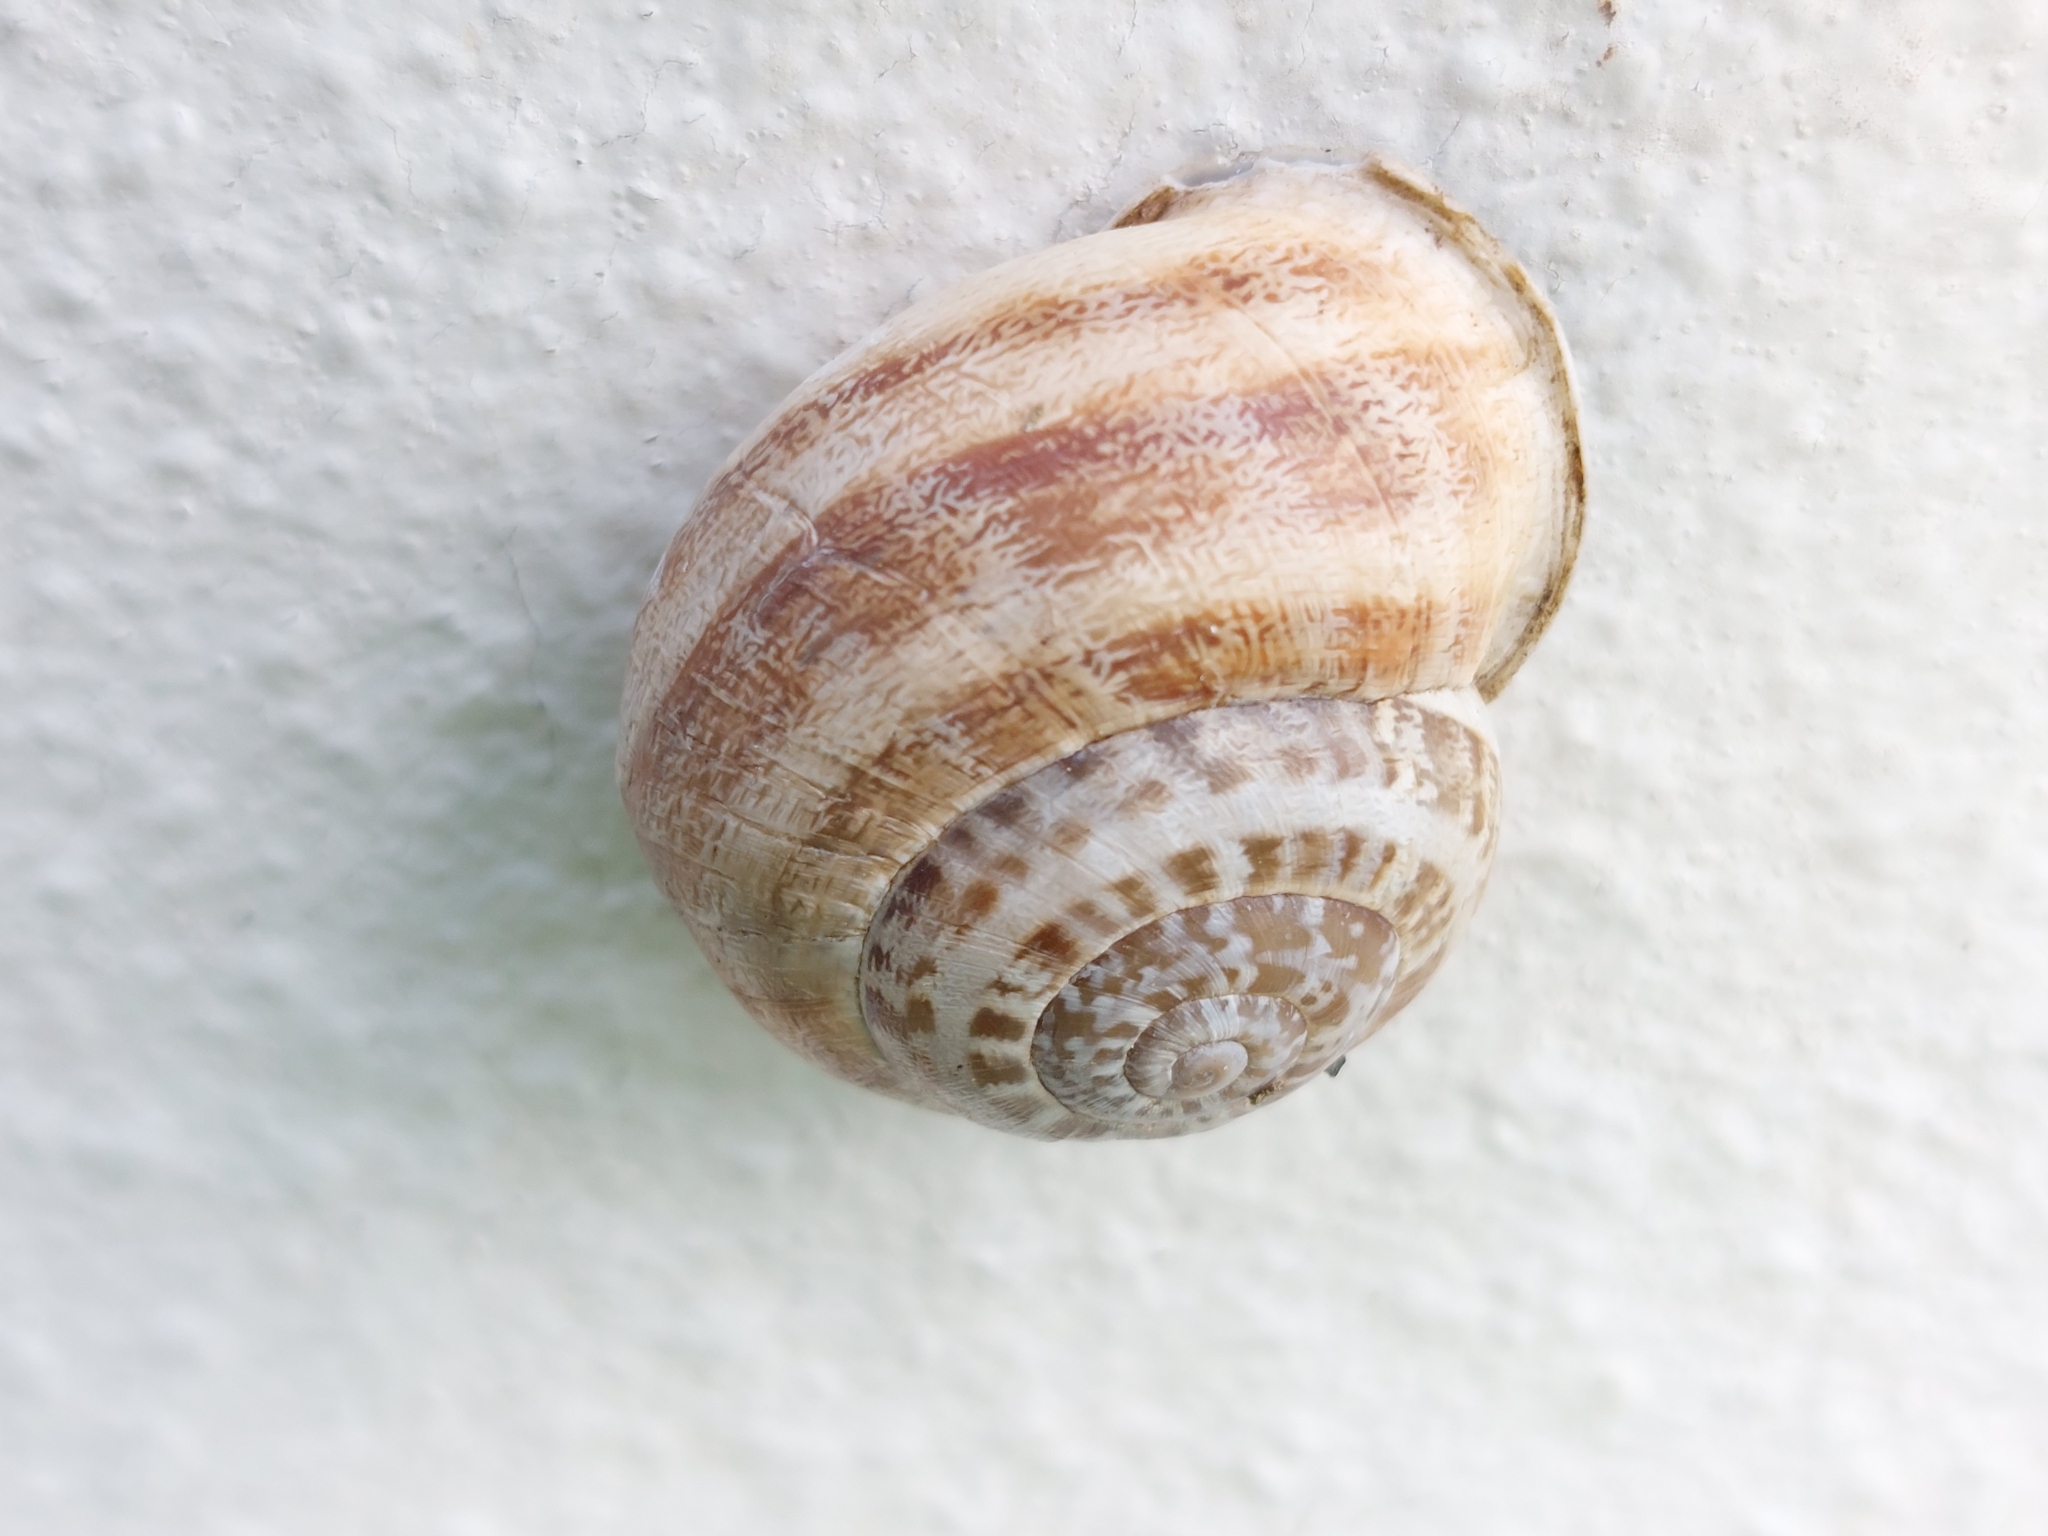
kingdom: Animalia
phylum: Mollusca
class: Gastropoda
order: Stylommatophora
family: Helicidae
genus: Eobania
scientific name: Eobania vermiculata
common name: Chocolateband snail
